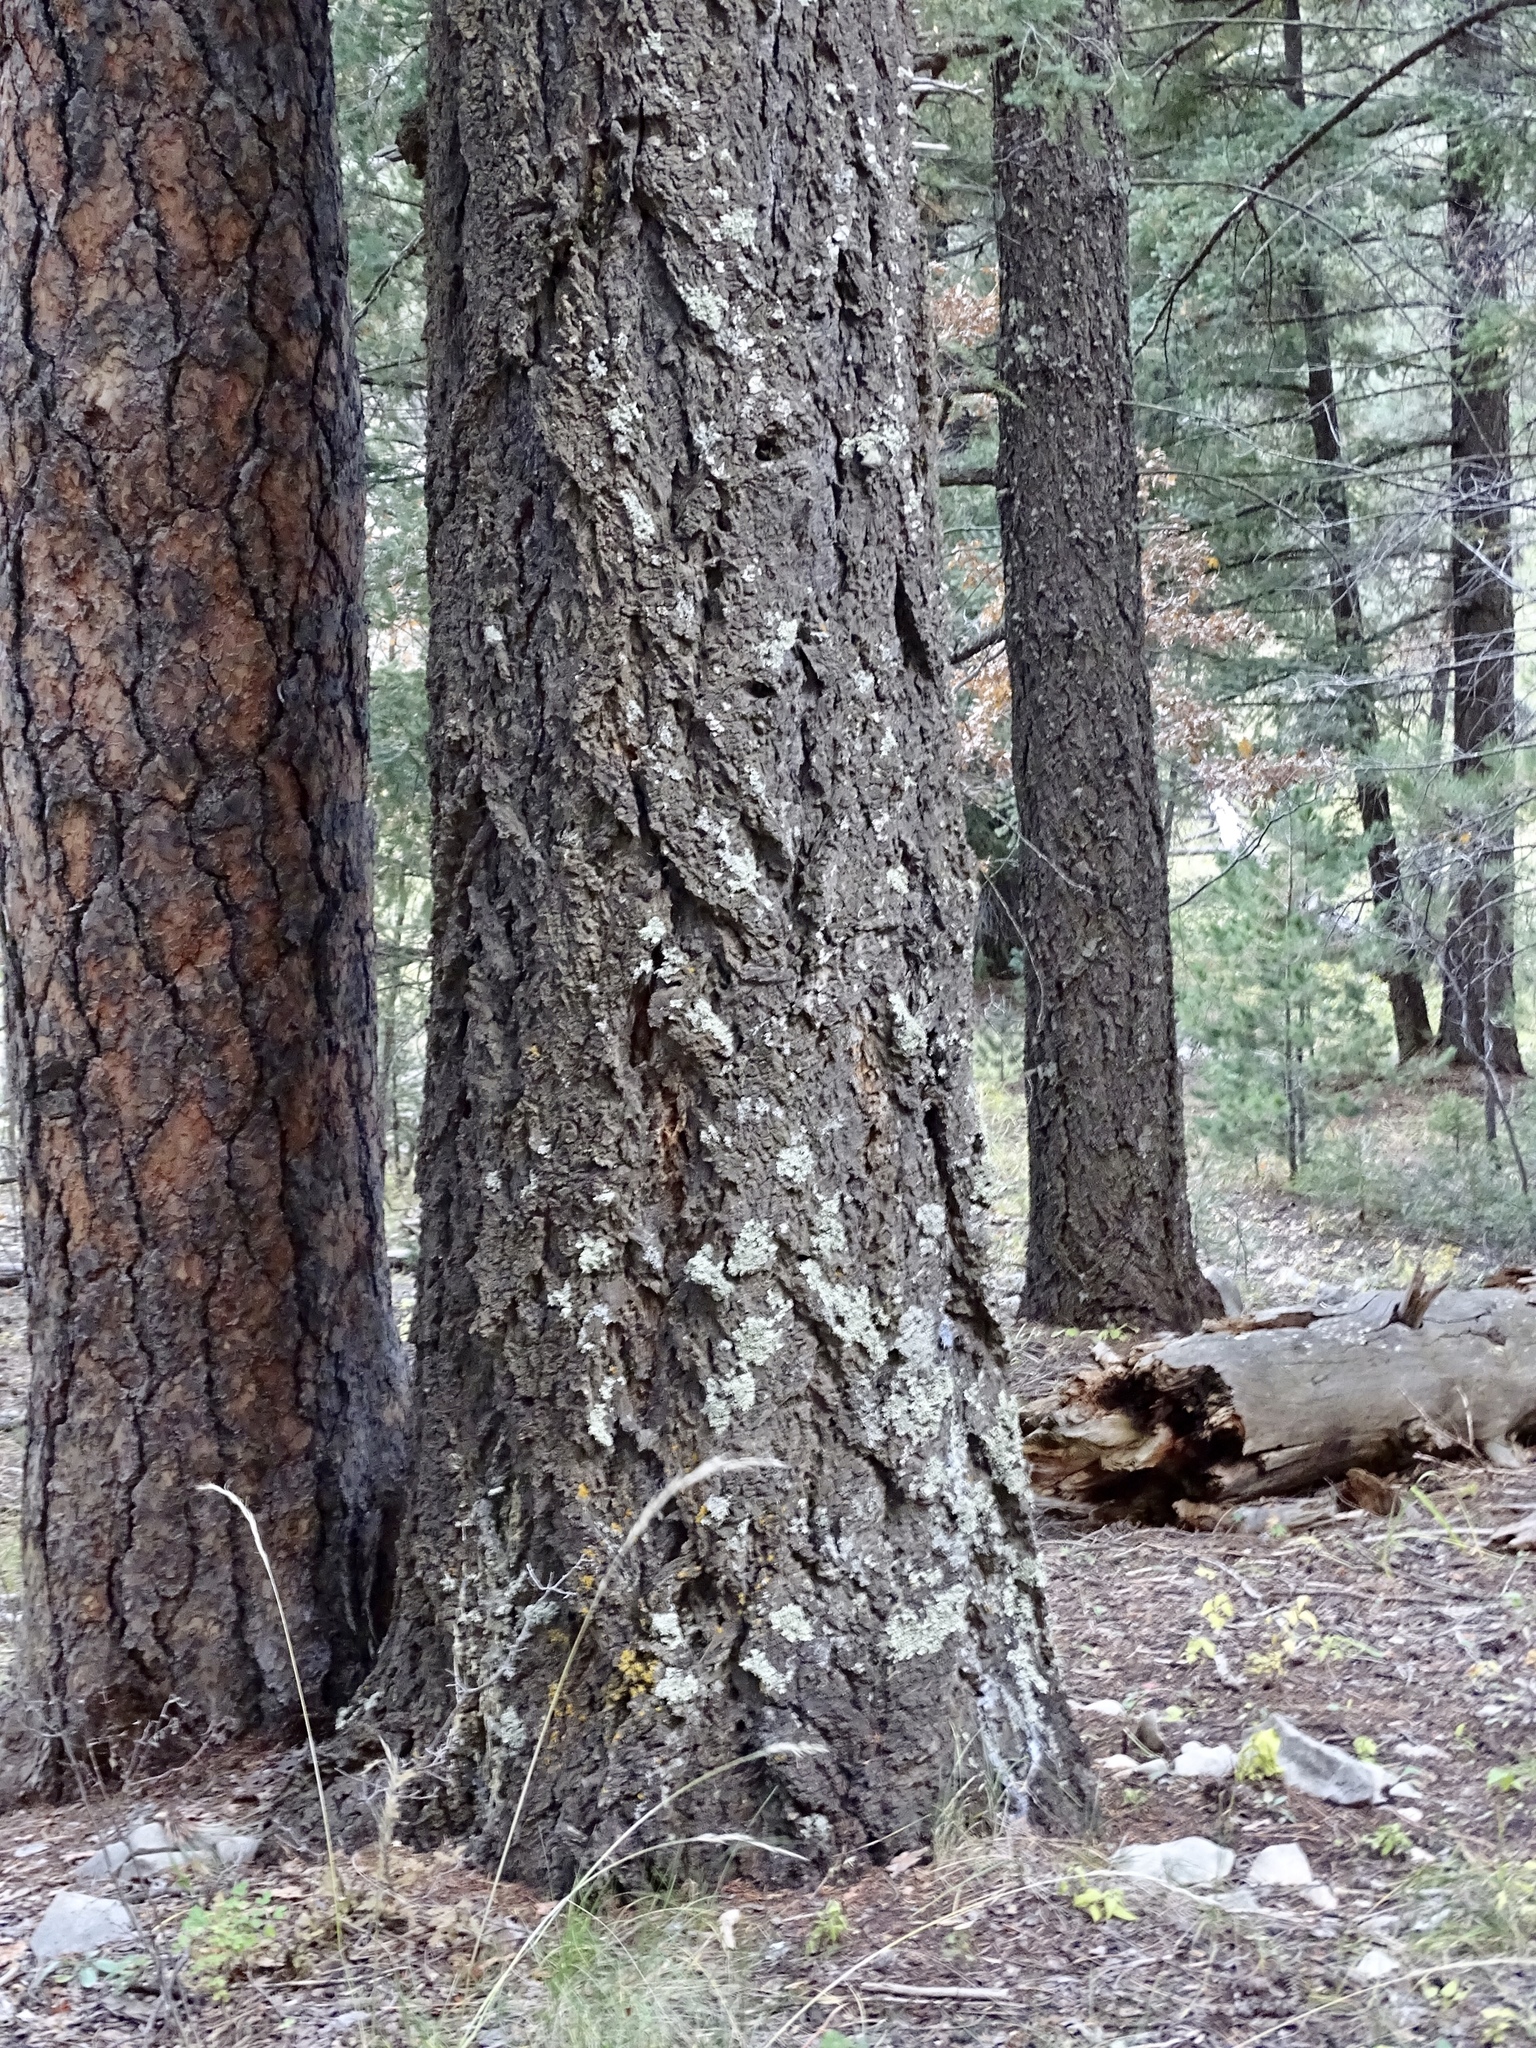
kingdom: Plantae
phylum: Tracheophyta
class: Pinopsida
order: Pinales
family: Pinaceae
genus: Pseudotsuga
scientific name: Pseudotsuga menziesii
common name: Douglas fir
